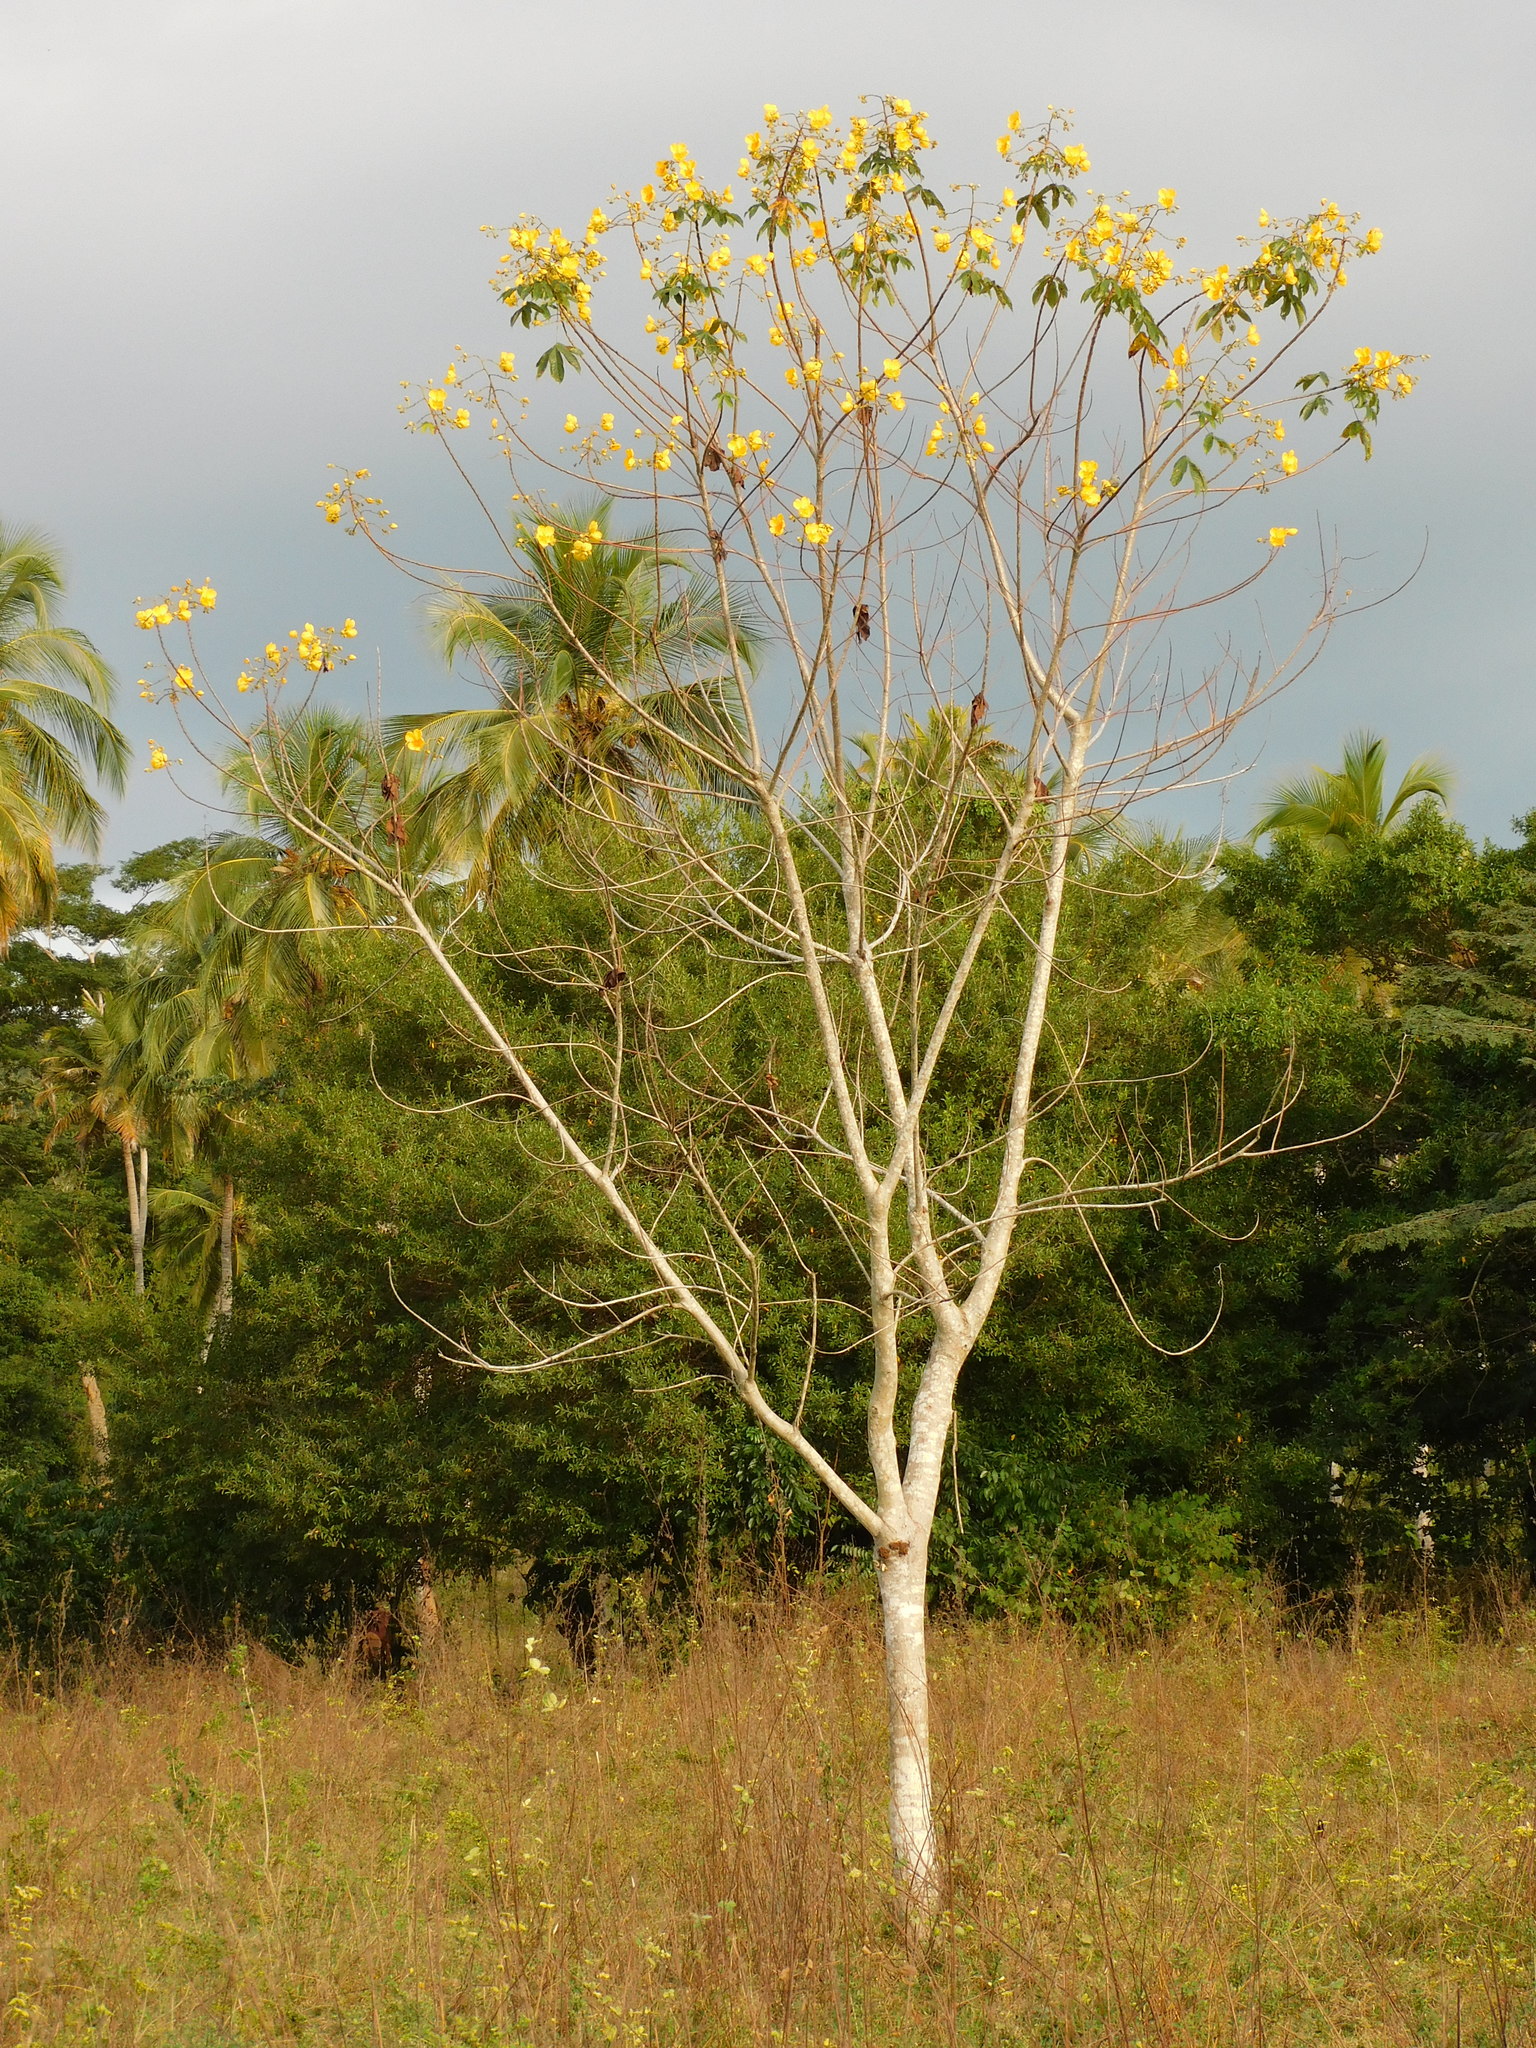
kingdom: Plantae
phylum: Tracheophyta
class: Magnoliopsida
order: Malvales
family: Cochlospermaceae
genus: Cochlospermum
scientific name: Cochlospermum vitifolium
